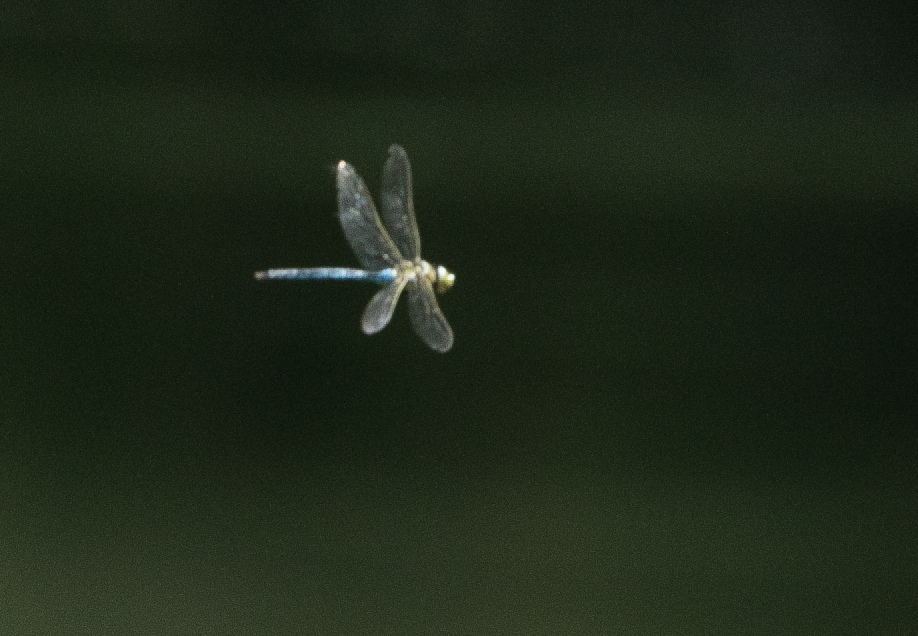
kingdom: Animalia
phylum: Arthropoda
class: Insecta
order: Odonata
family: Aeshnidae
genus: Anax
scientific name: Anax imperator
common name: Emperor dragonfly
